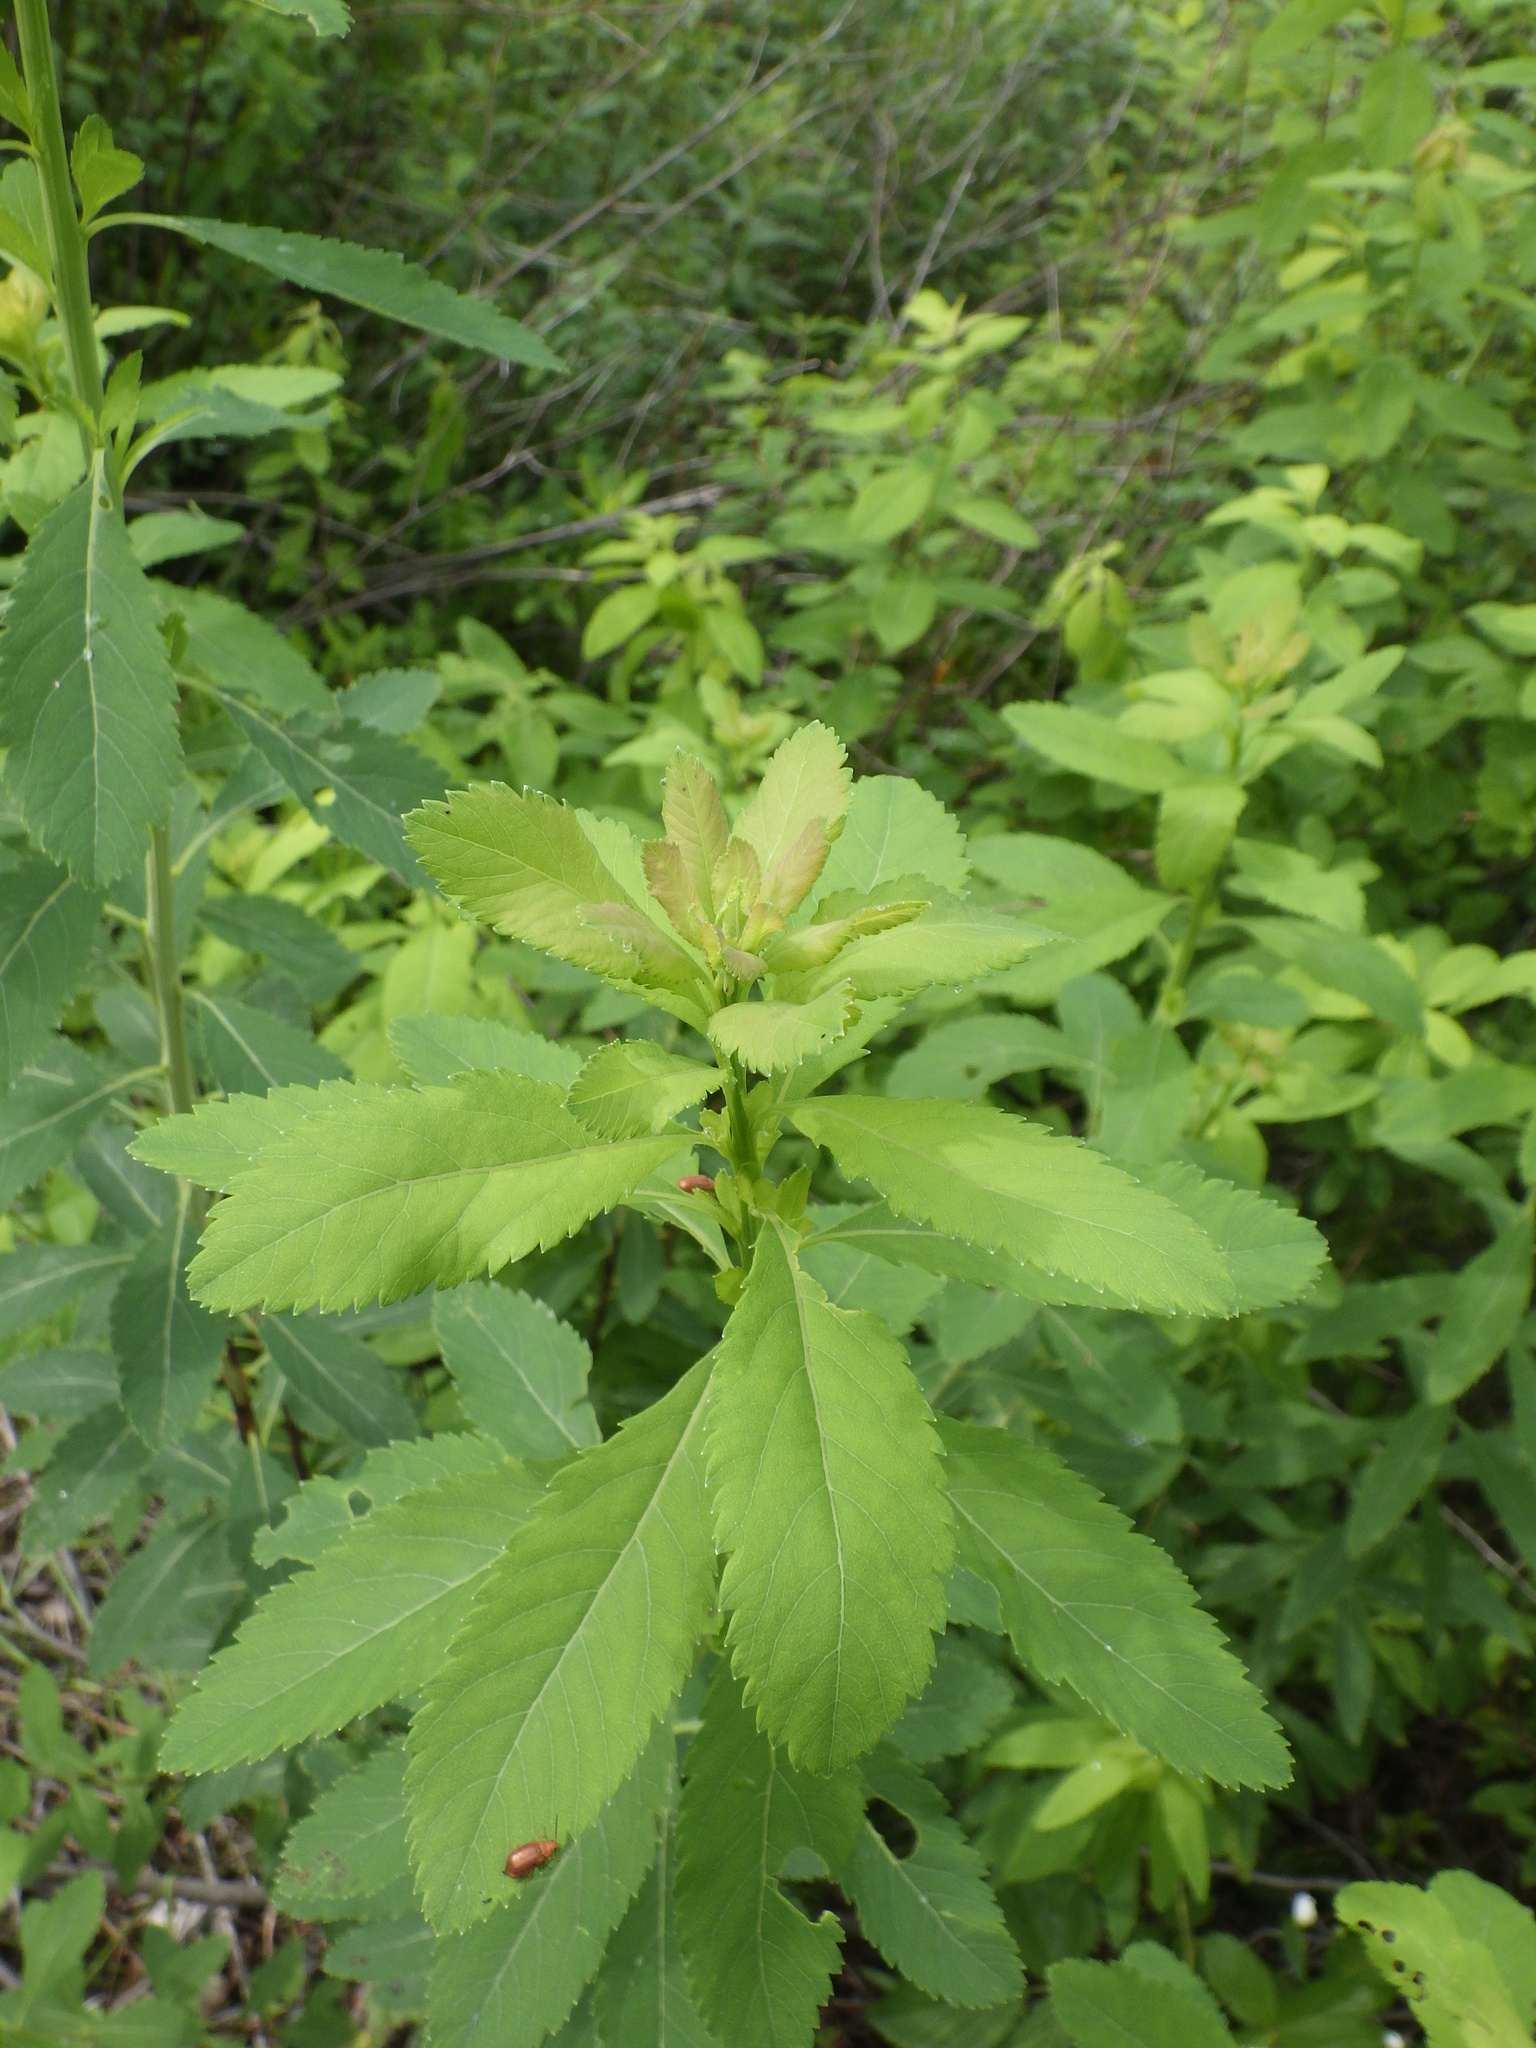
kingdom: Plantae
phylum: Tracheophyta
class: Magnoliopsida
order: Rosales
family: Rosaceae
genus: Spiraea
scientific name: Spiraea alba
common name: Pale bridewort
